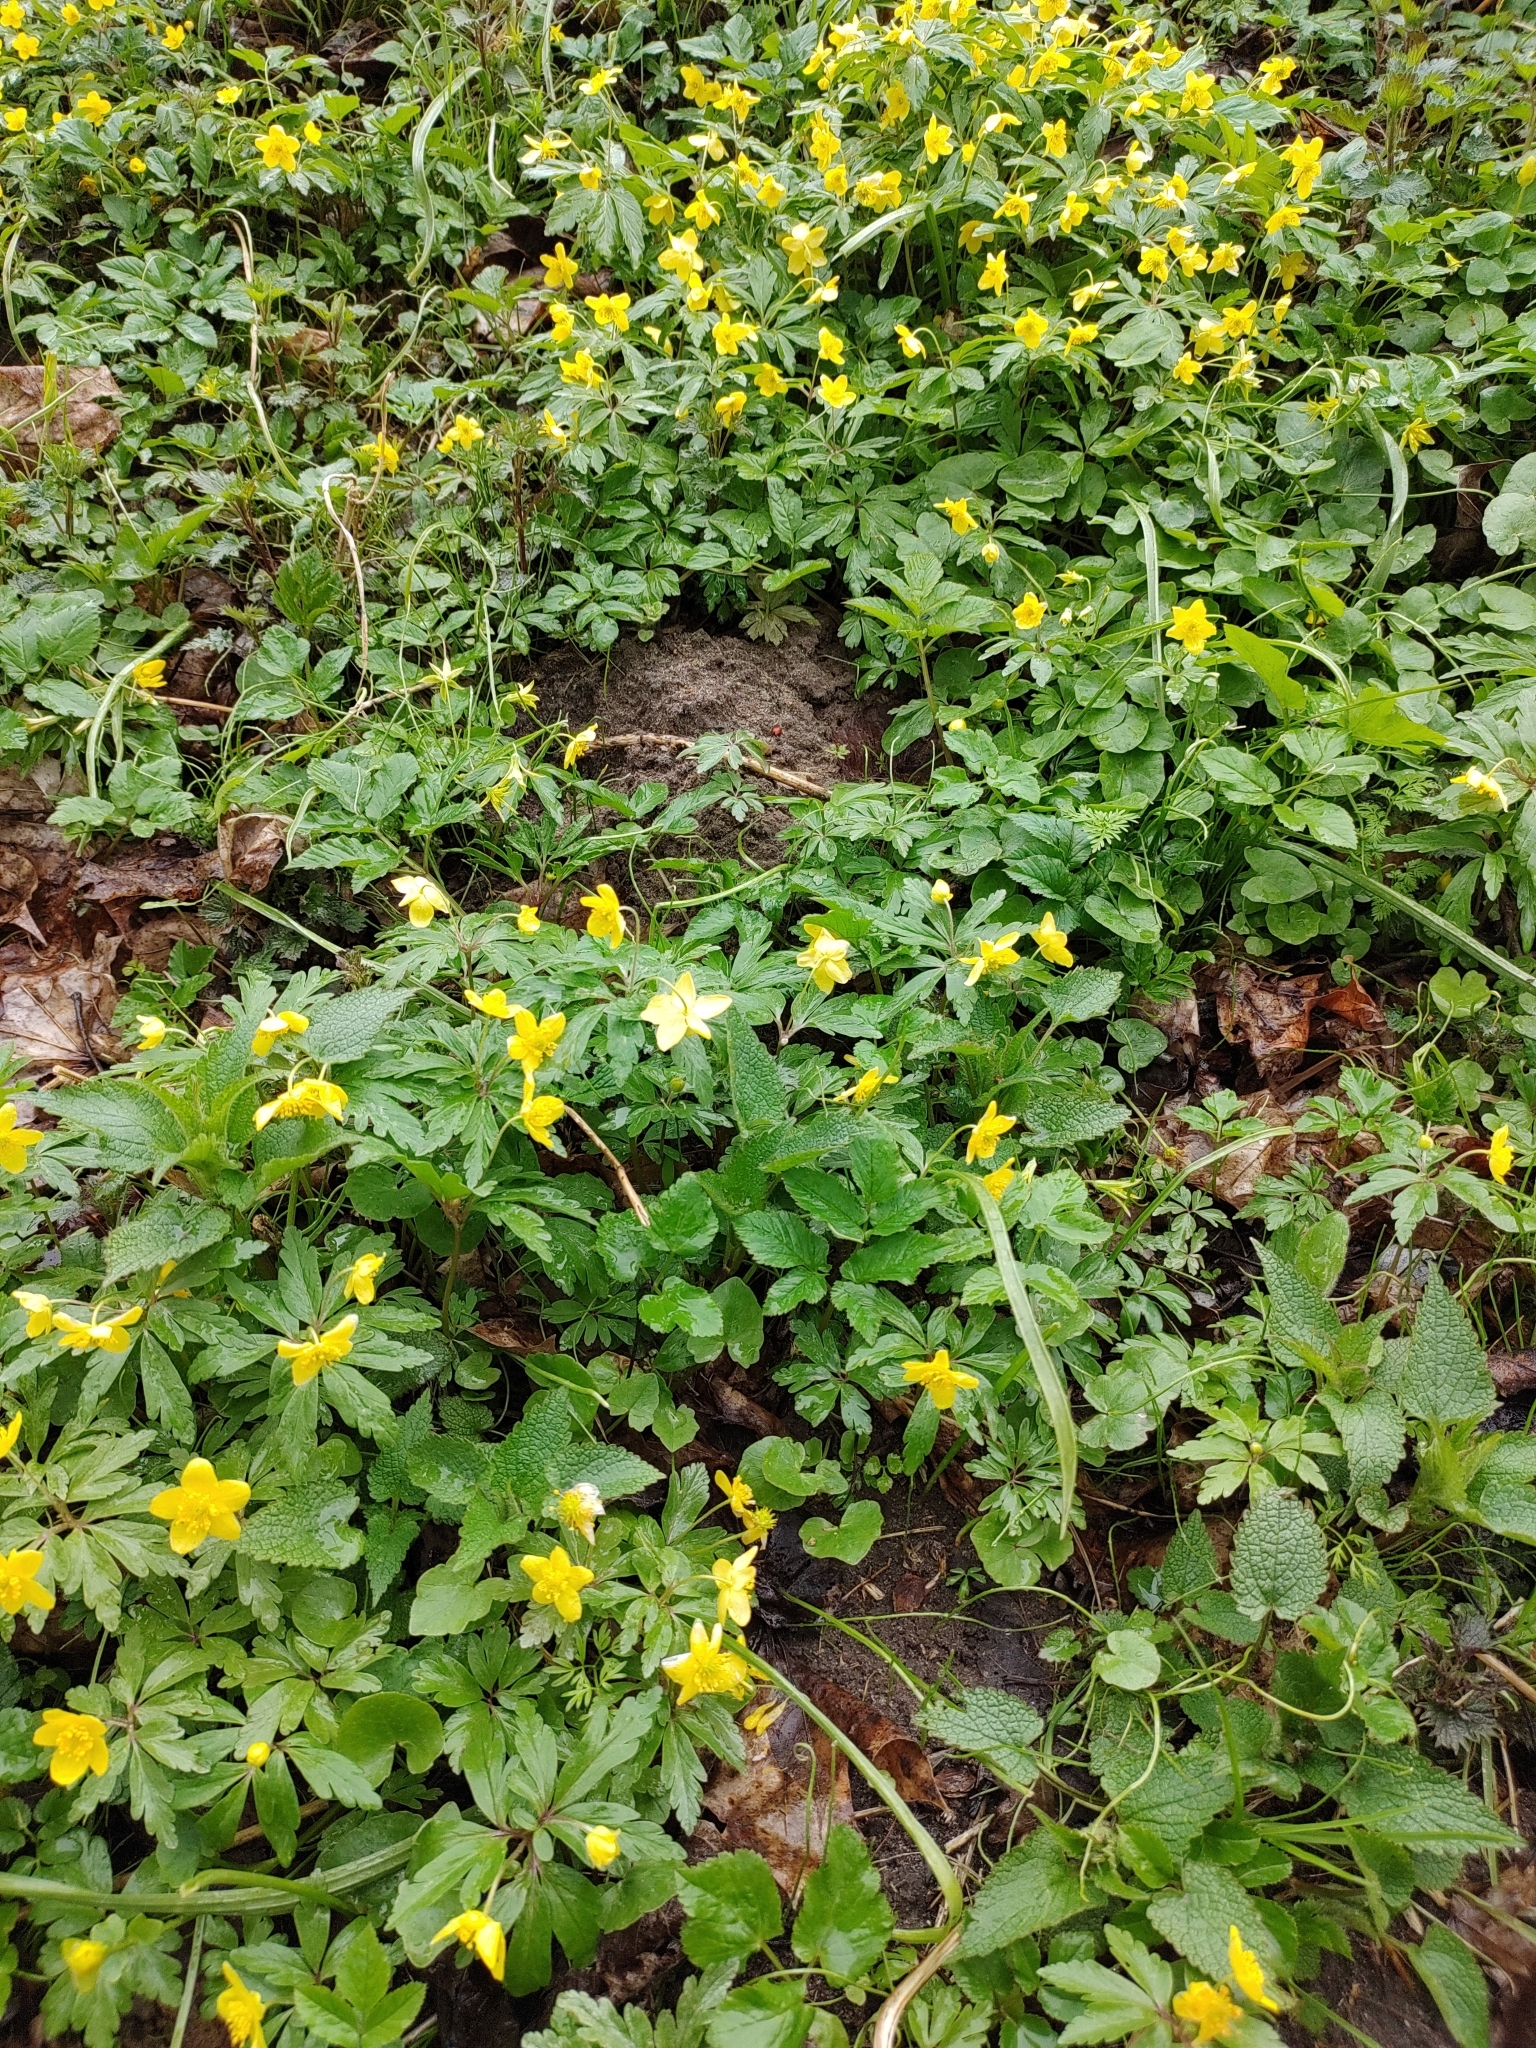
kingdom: Plantae
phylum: Tracheophyta
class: Magnoliopsida
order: Ranunculales
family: Ranunculaceae
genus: Anemone
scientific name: Anemone ranunculoides
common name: Yellow anemone
